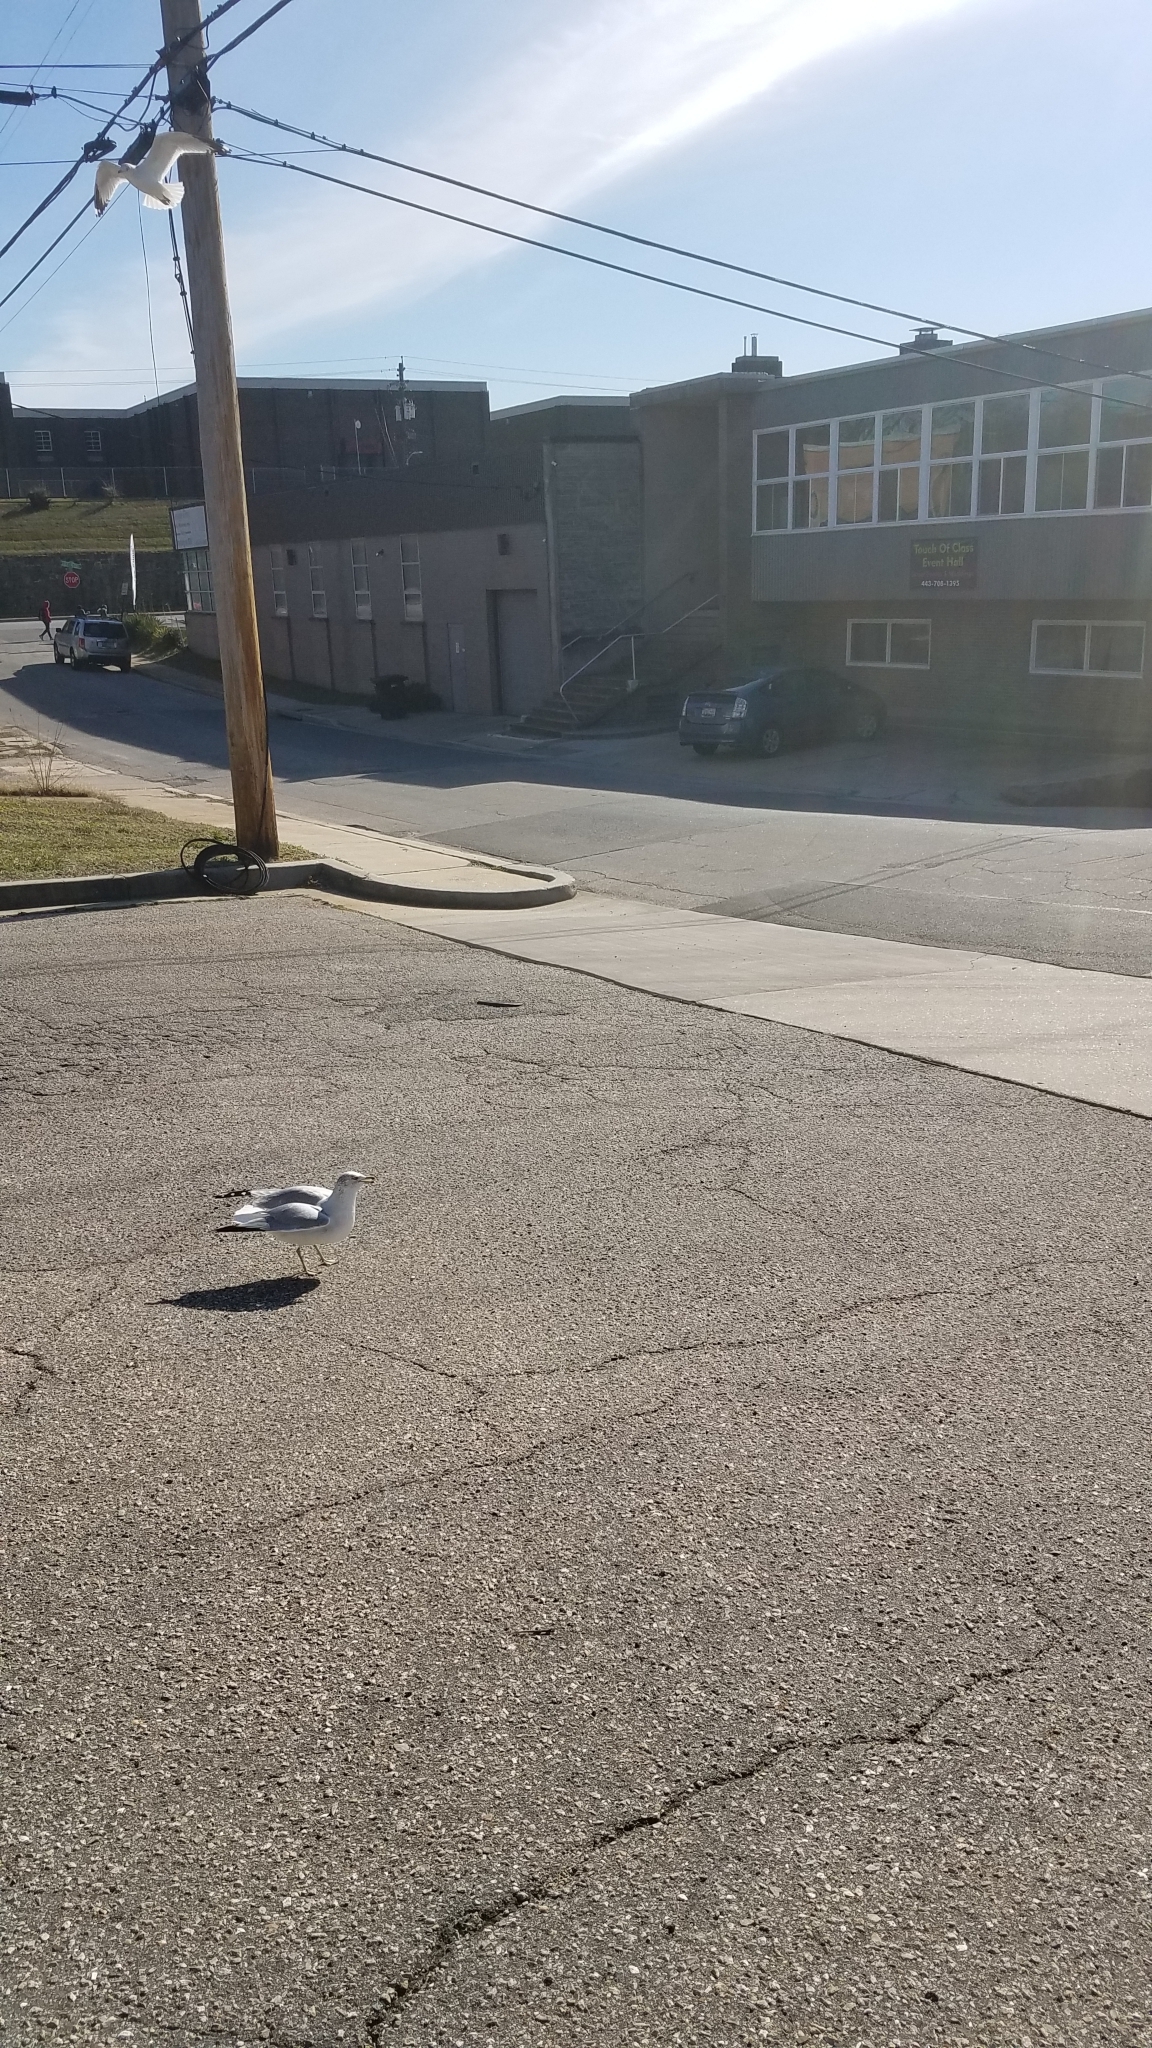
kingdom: Animalia
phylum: Chordata
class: Aves
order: Charadriiformes
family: Laridae
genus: Larus
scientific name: Larus delawarensis
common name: Ring-billed gull
